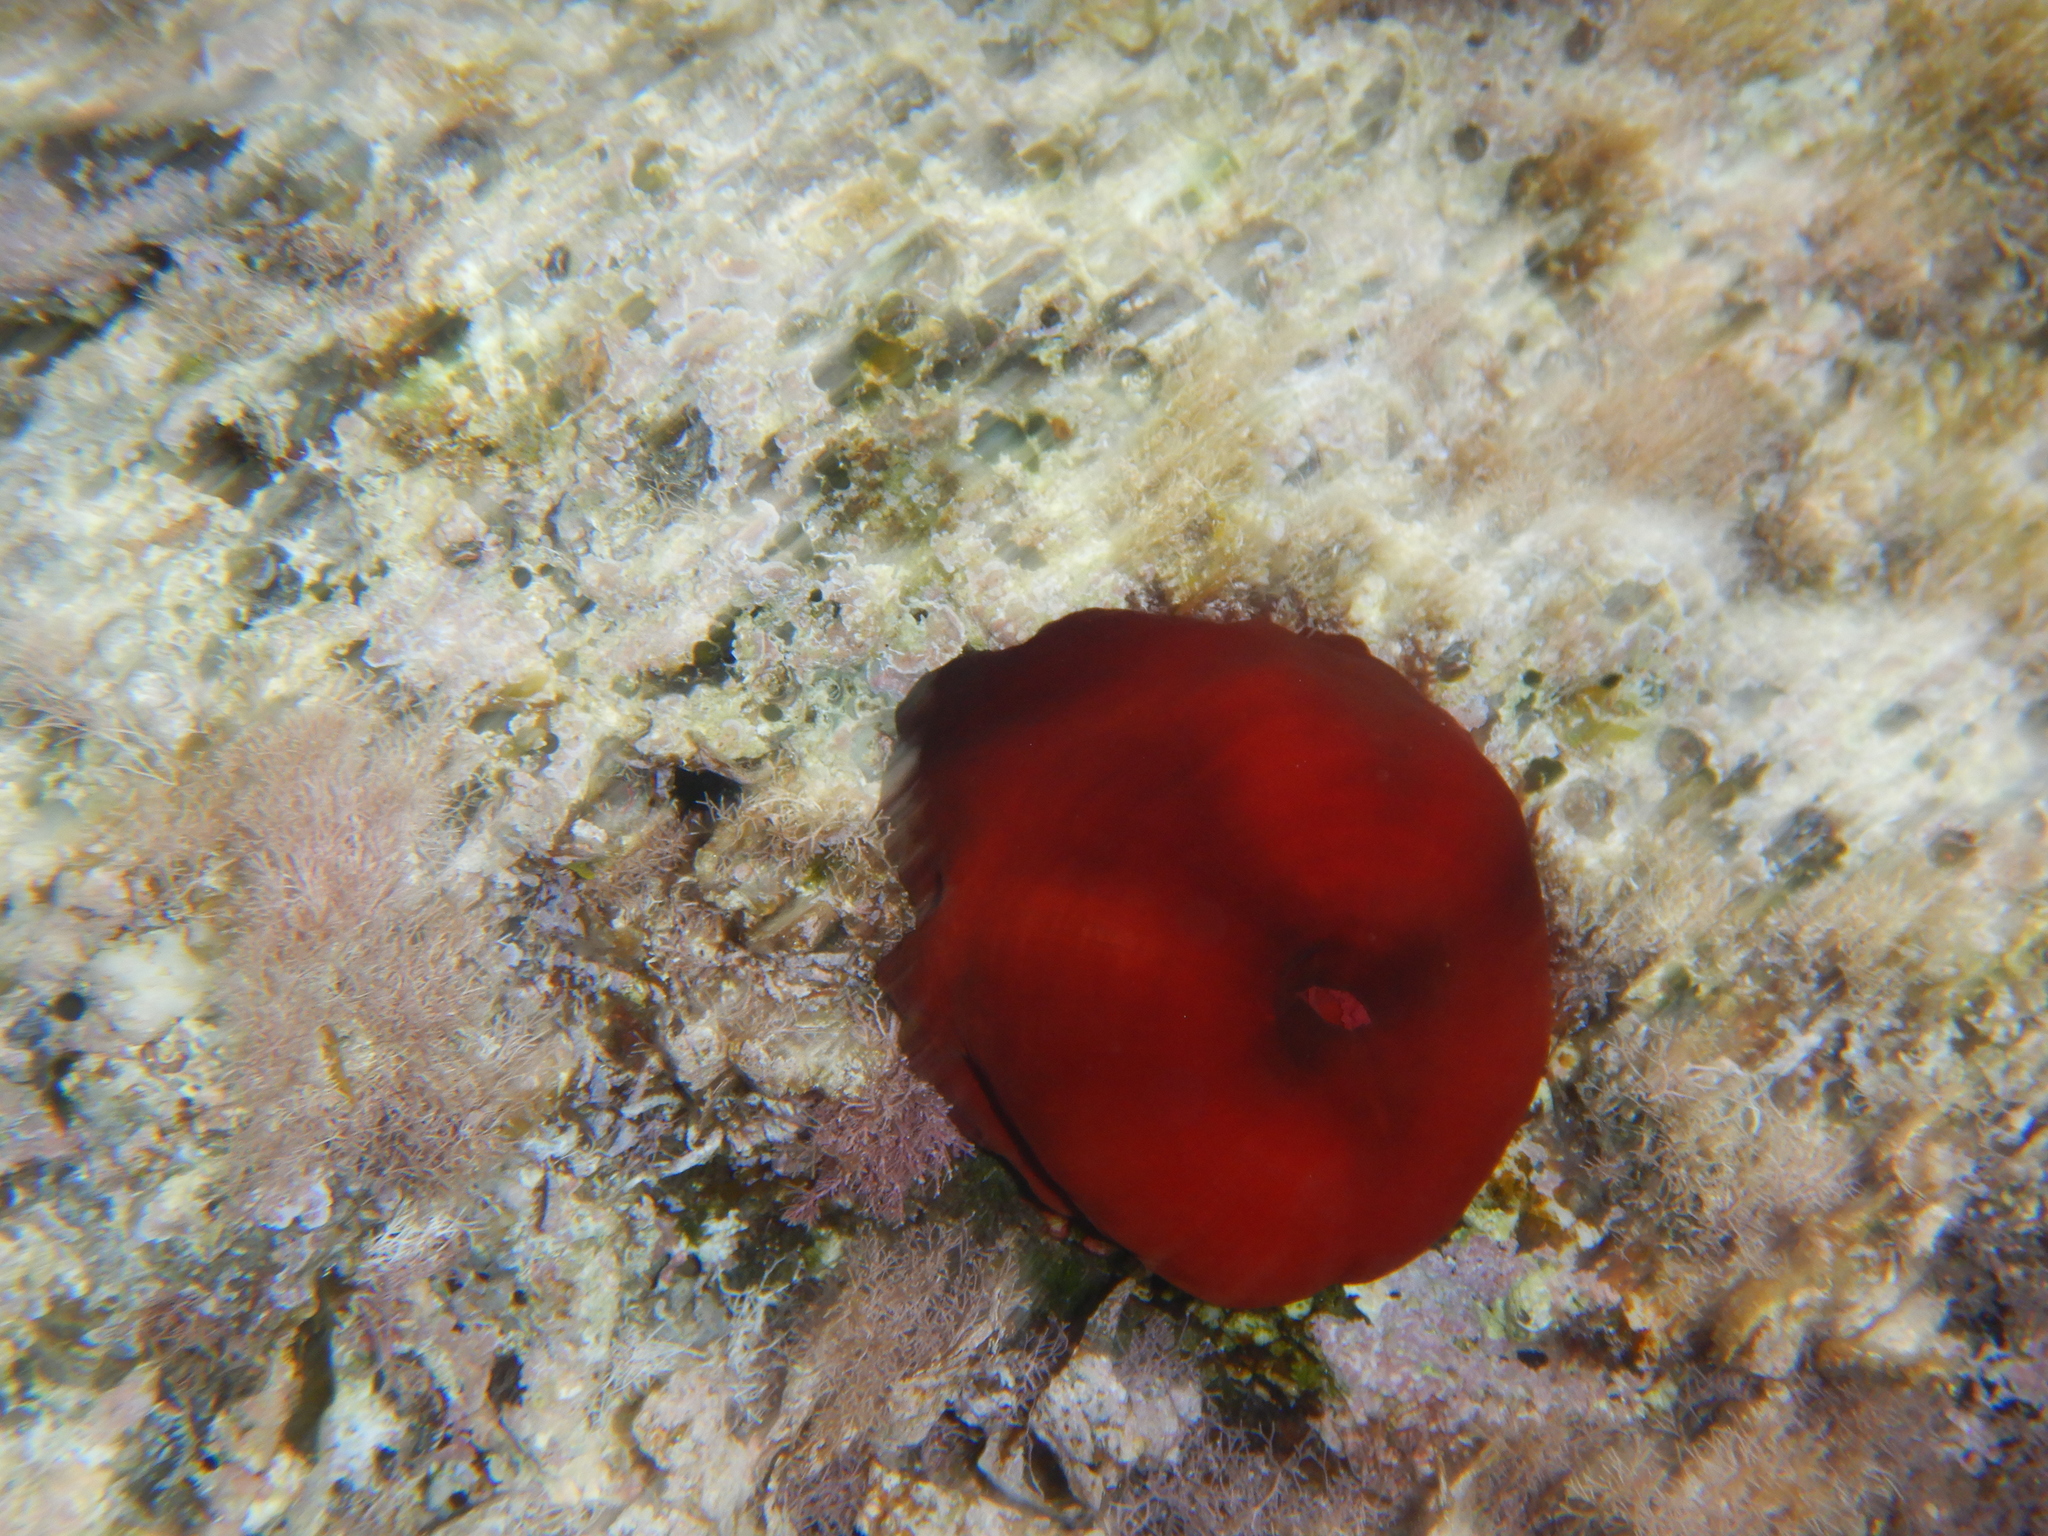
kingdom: Animalia
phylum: Cnidaria
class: Anthozoa
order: Actiniaria
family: Actiniidae
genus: Actinia
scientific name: Actinia mediterranea
